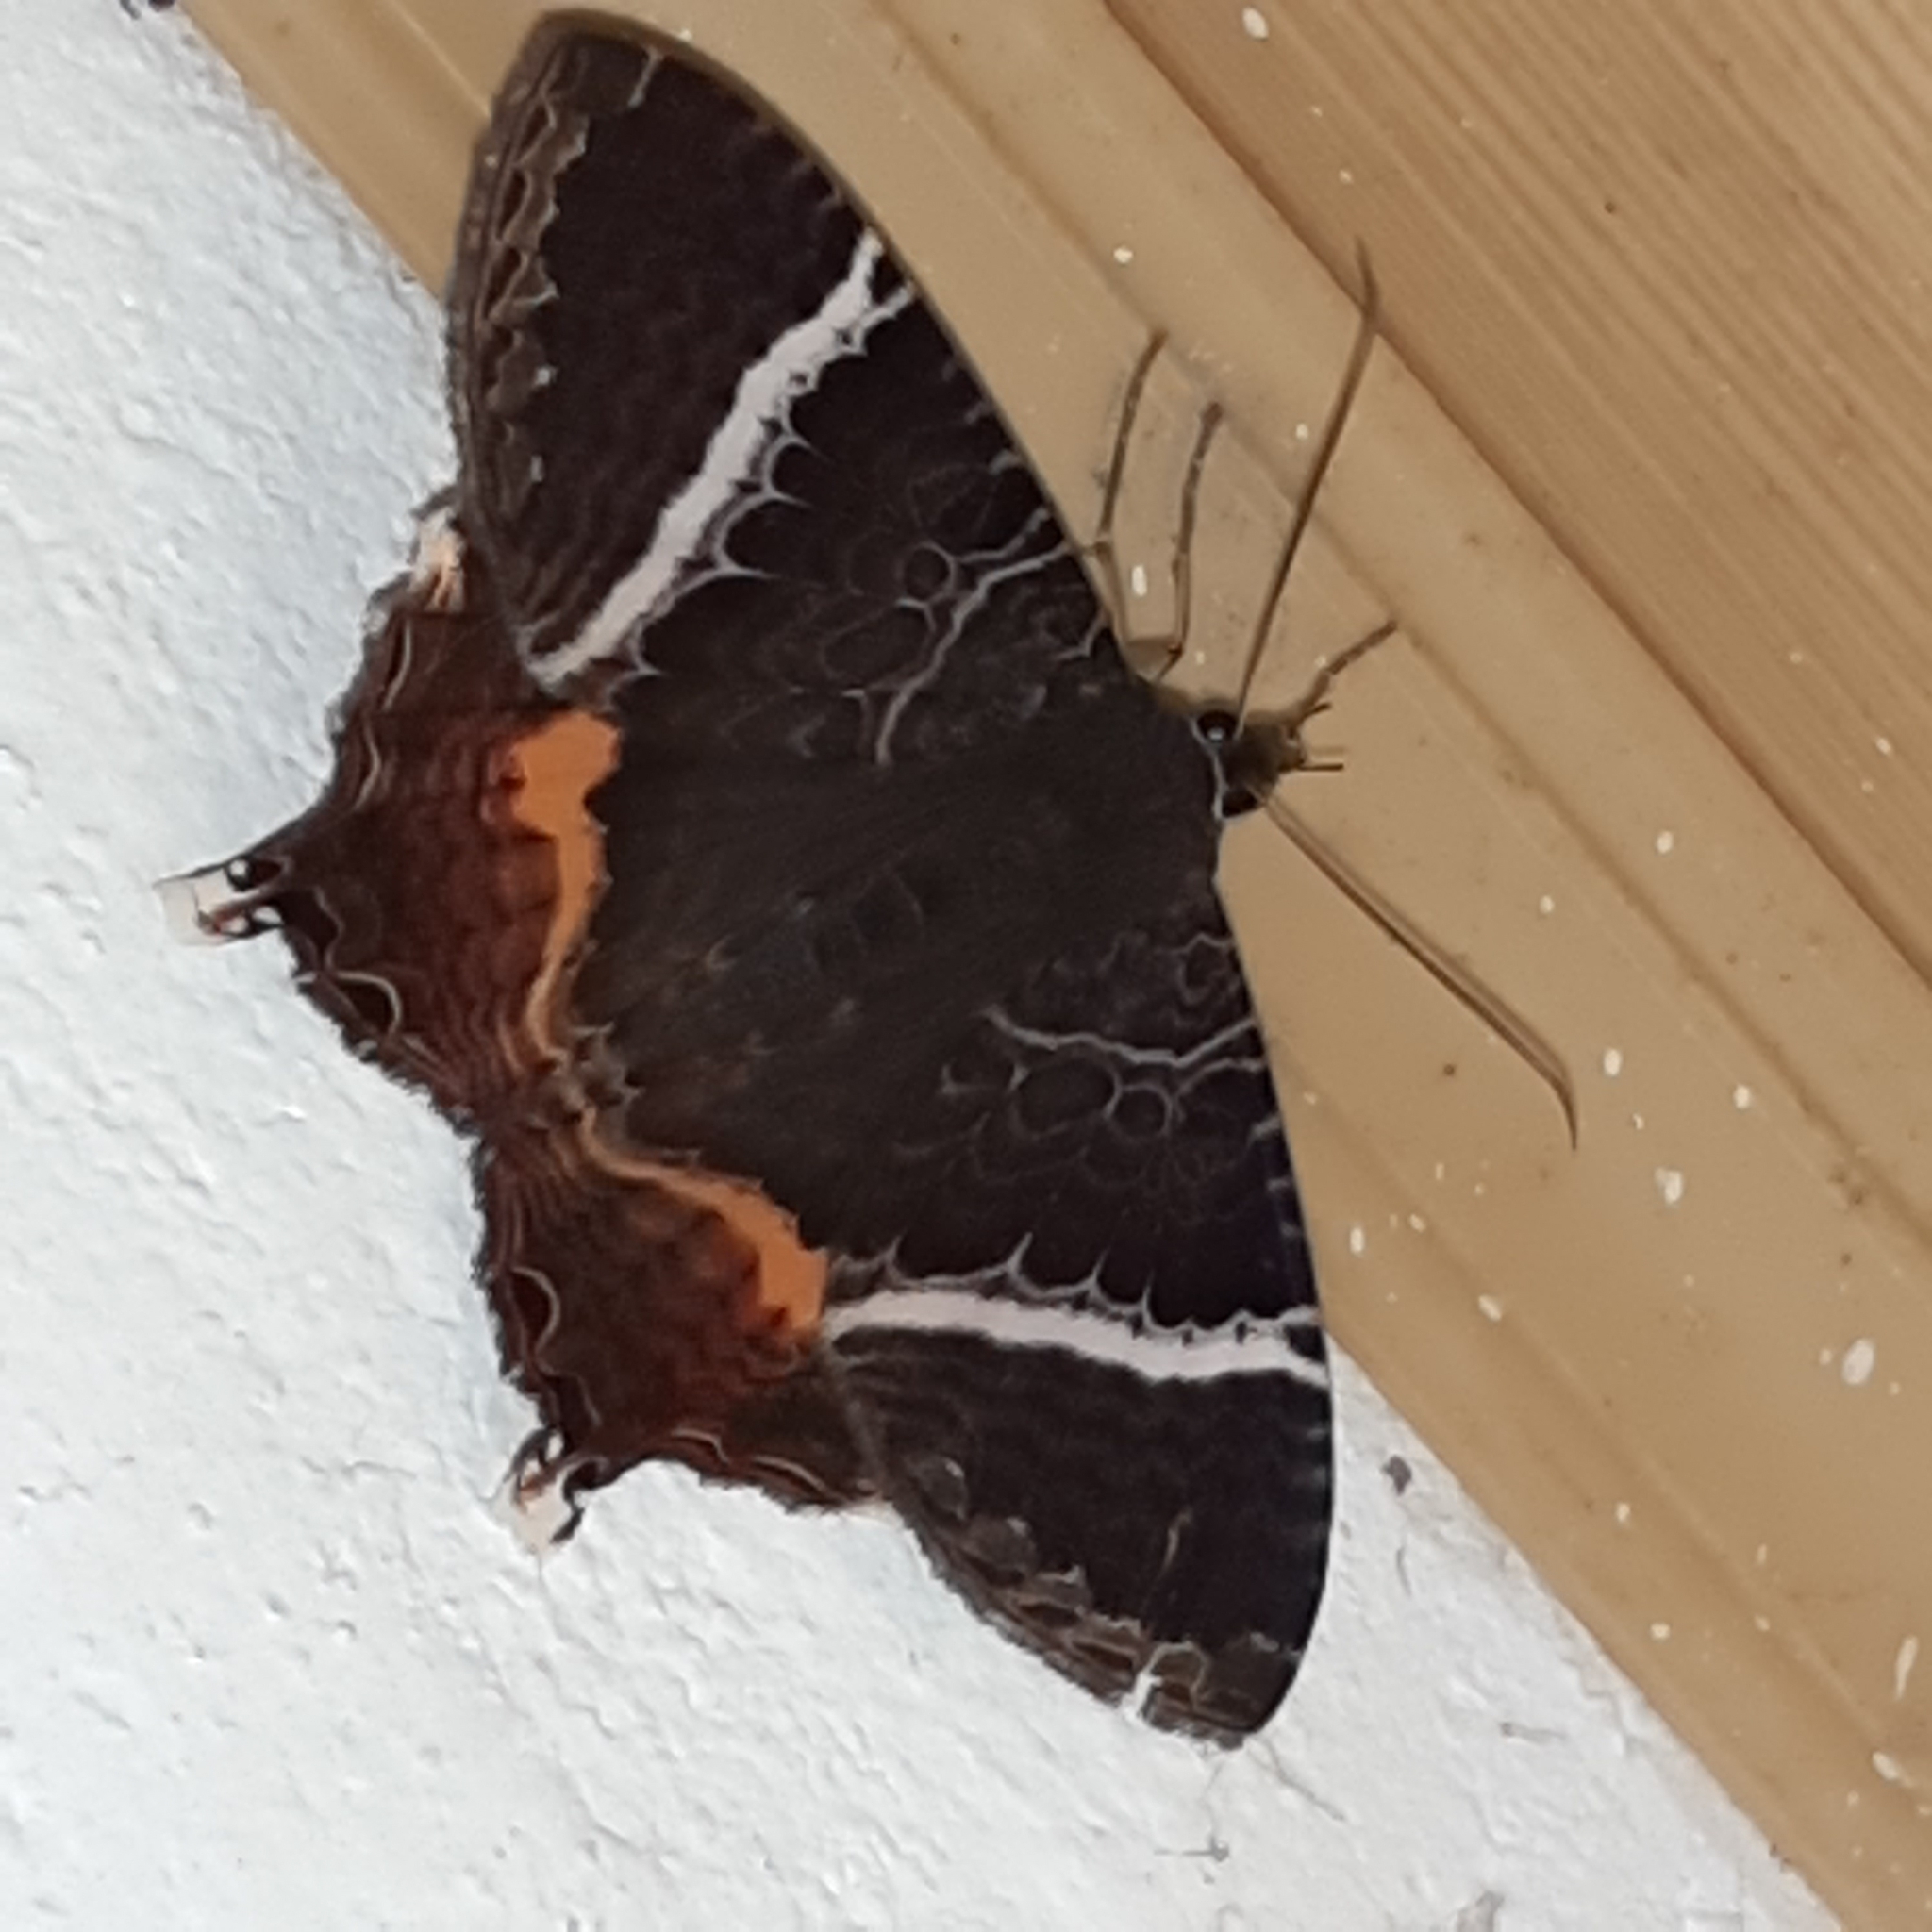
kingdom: Animalia
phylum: Arthropoda
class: Insecta
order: Lepidoptera
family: Sematuridae
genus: Coronidia
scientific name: Coronidia subpicta
